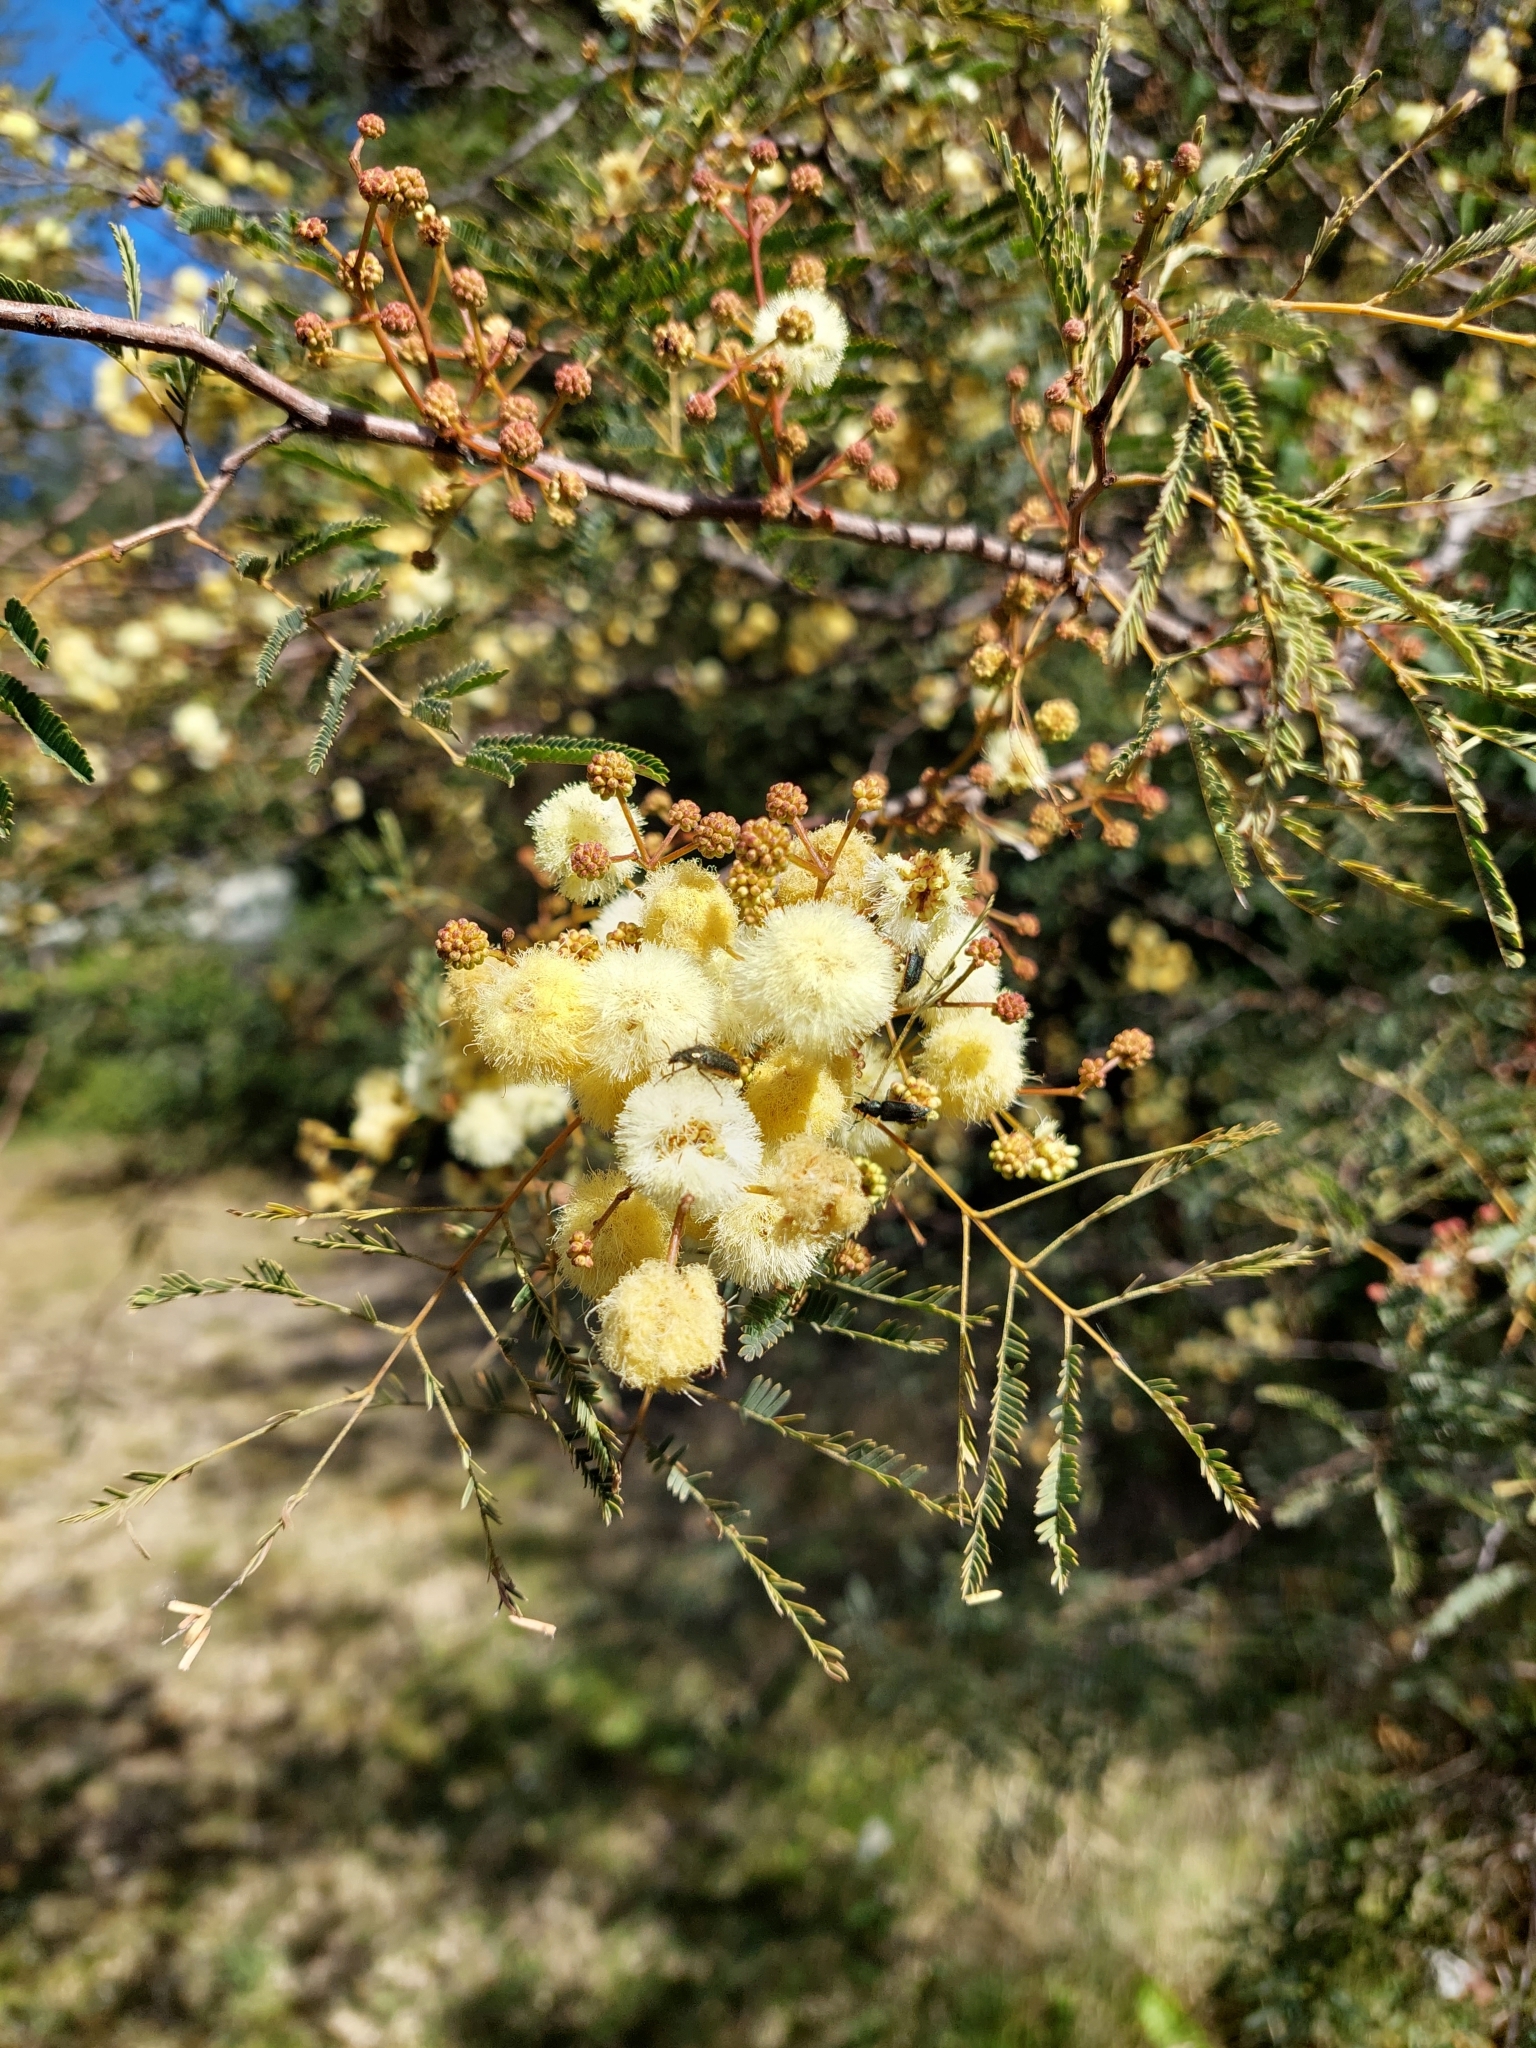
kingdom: Plantae
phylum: Tracheophyta
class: Magnoliopsida
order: Fabales
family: Fabaceae
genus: Senegalia
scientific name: Senegalia praecox
